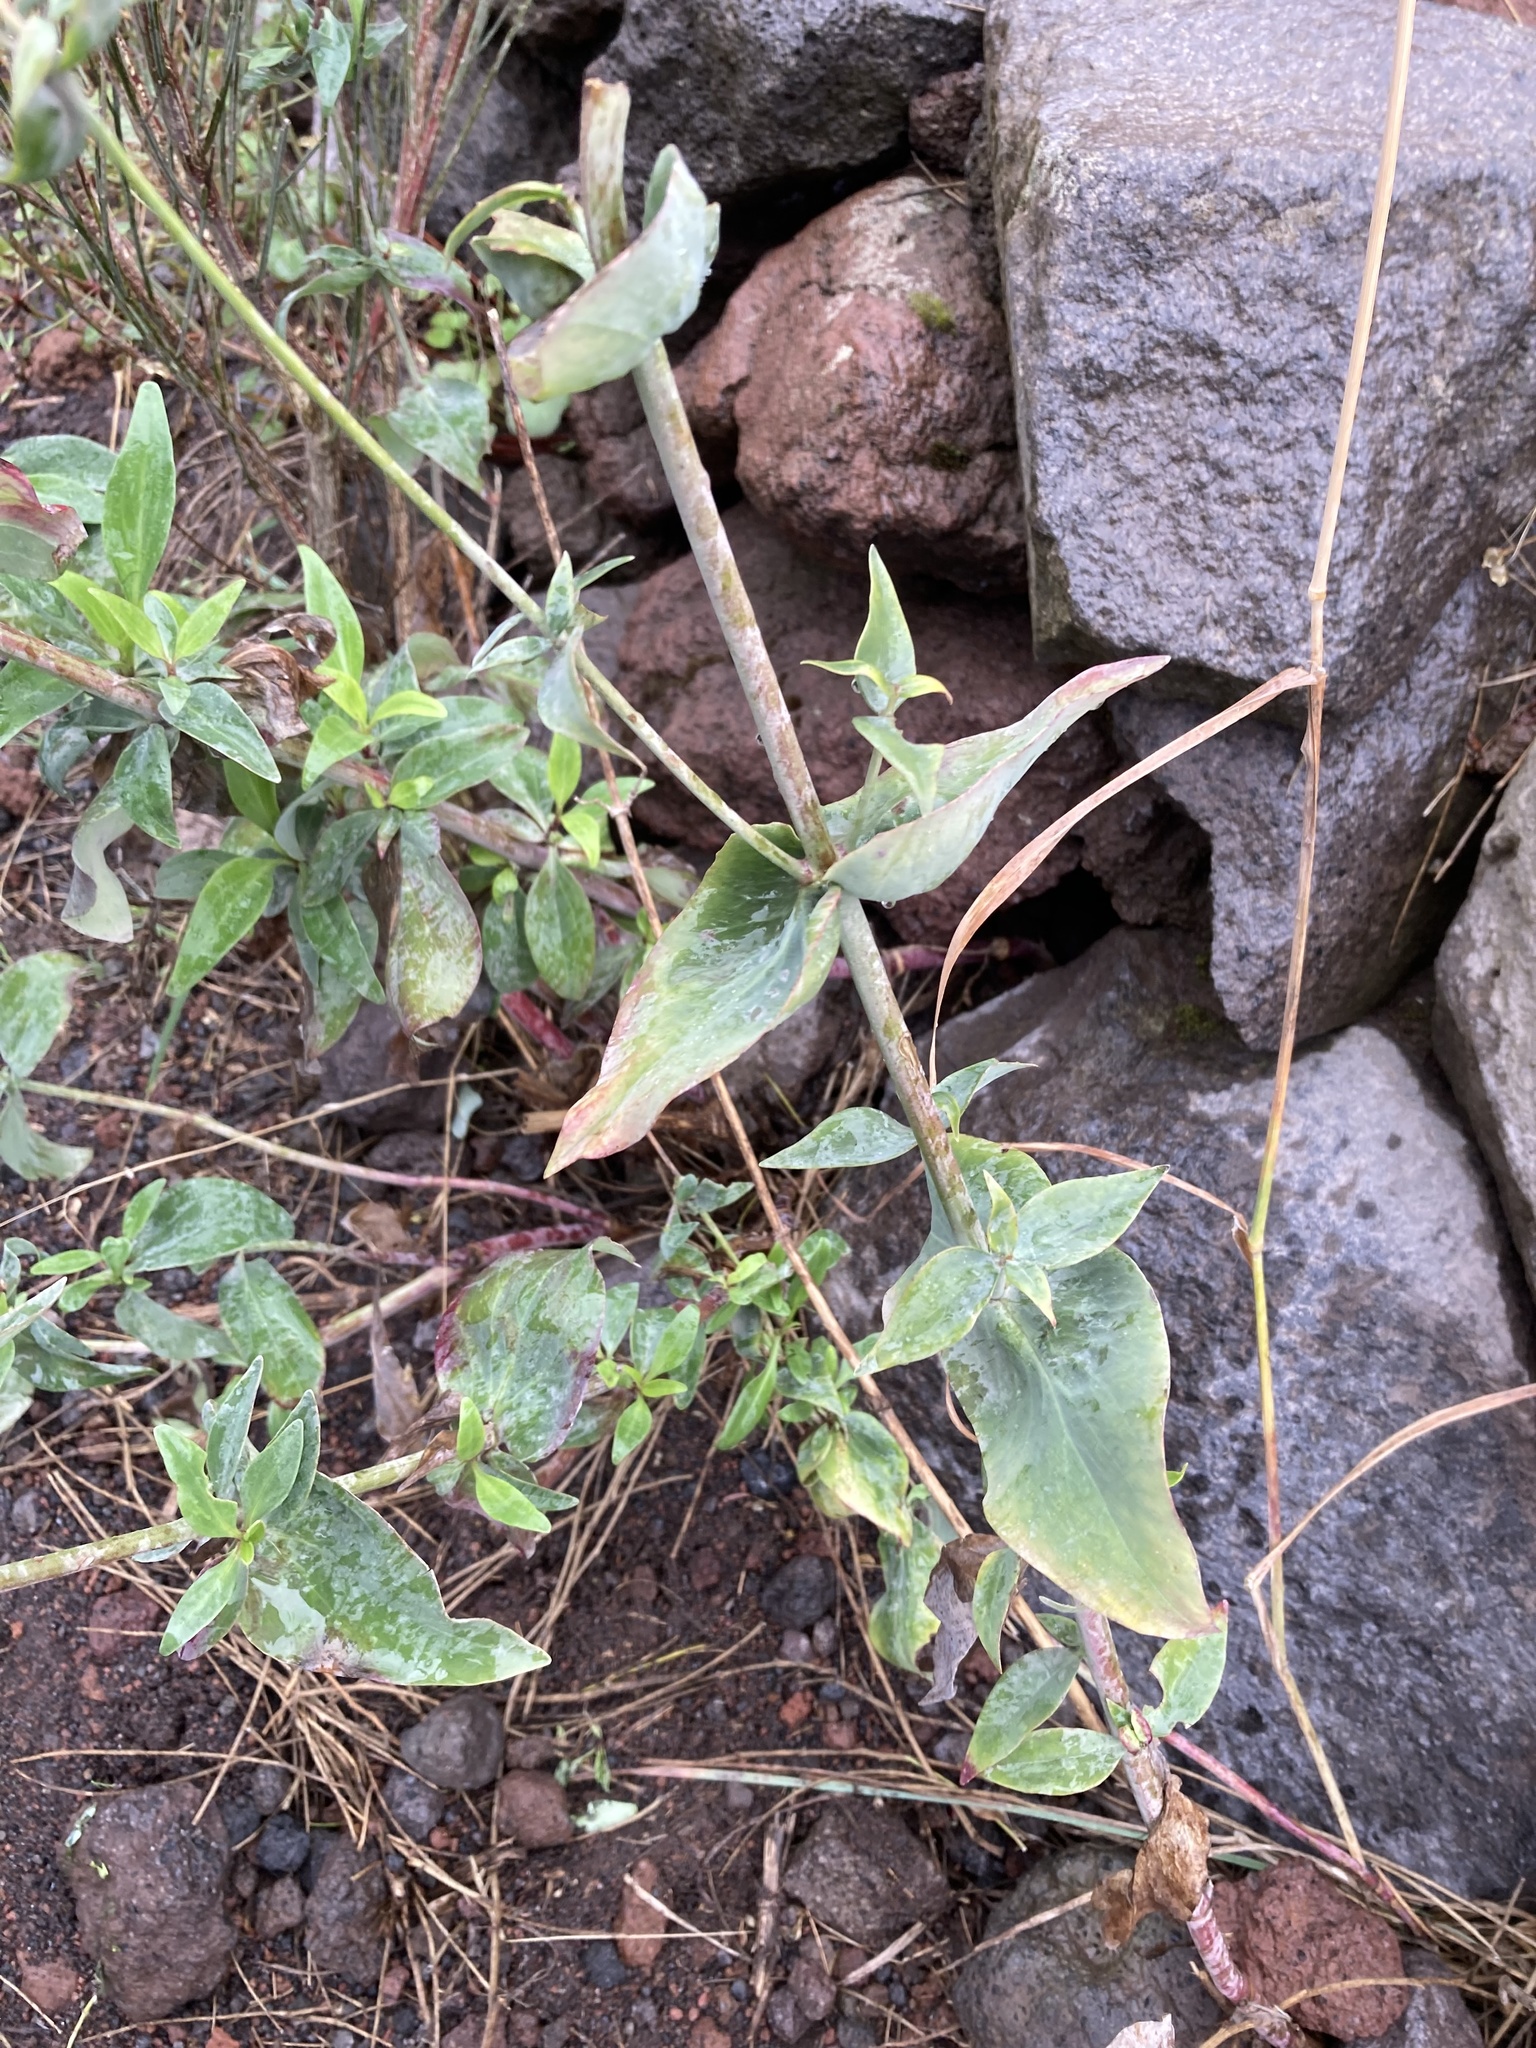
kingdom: Plantae
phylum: Tracheophyta
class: Magnoliopsida
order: Dipsacales
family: Caprifoliaceae
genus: Centranthus
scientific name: Centranthus ruber
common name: Red valerian
